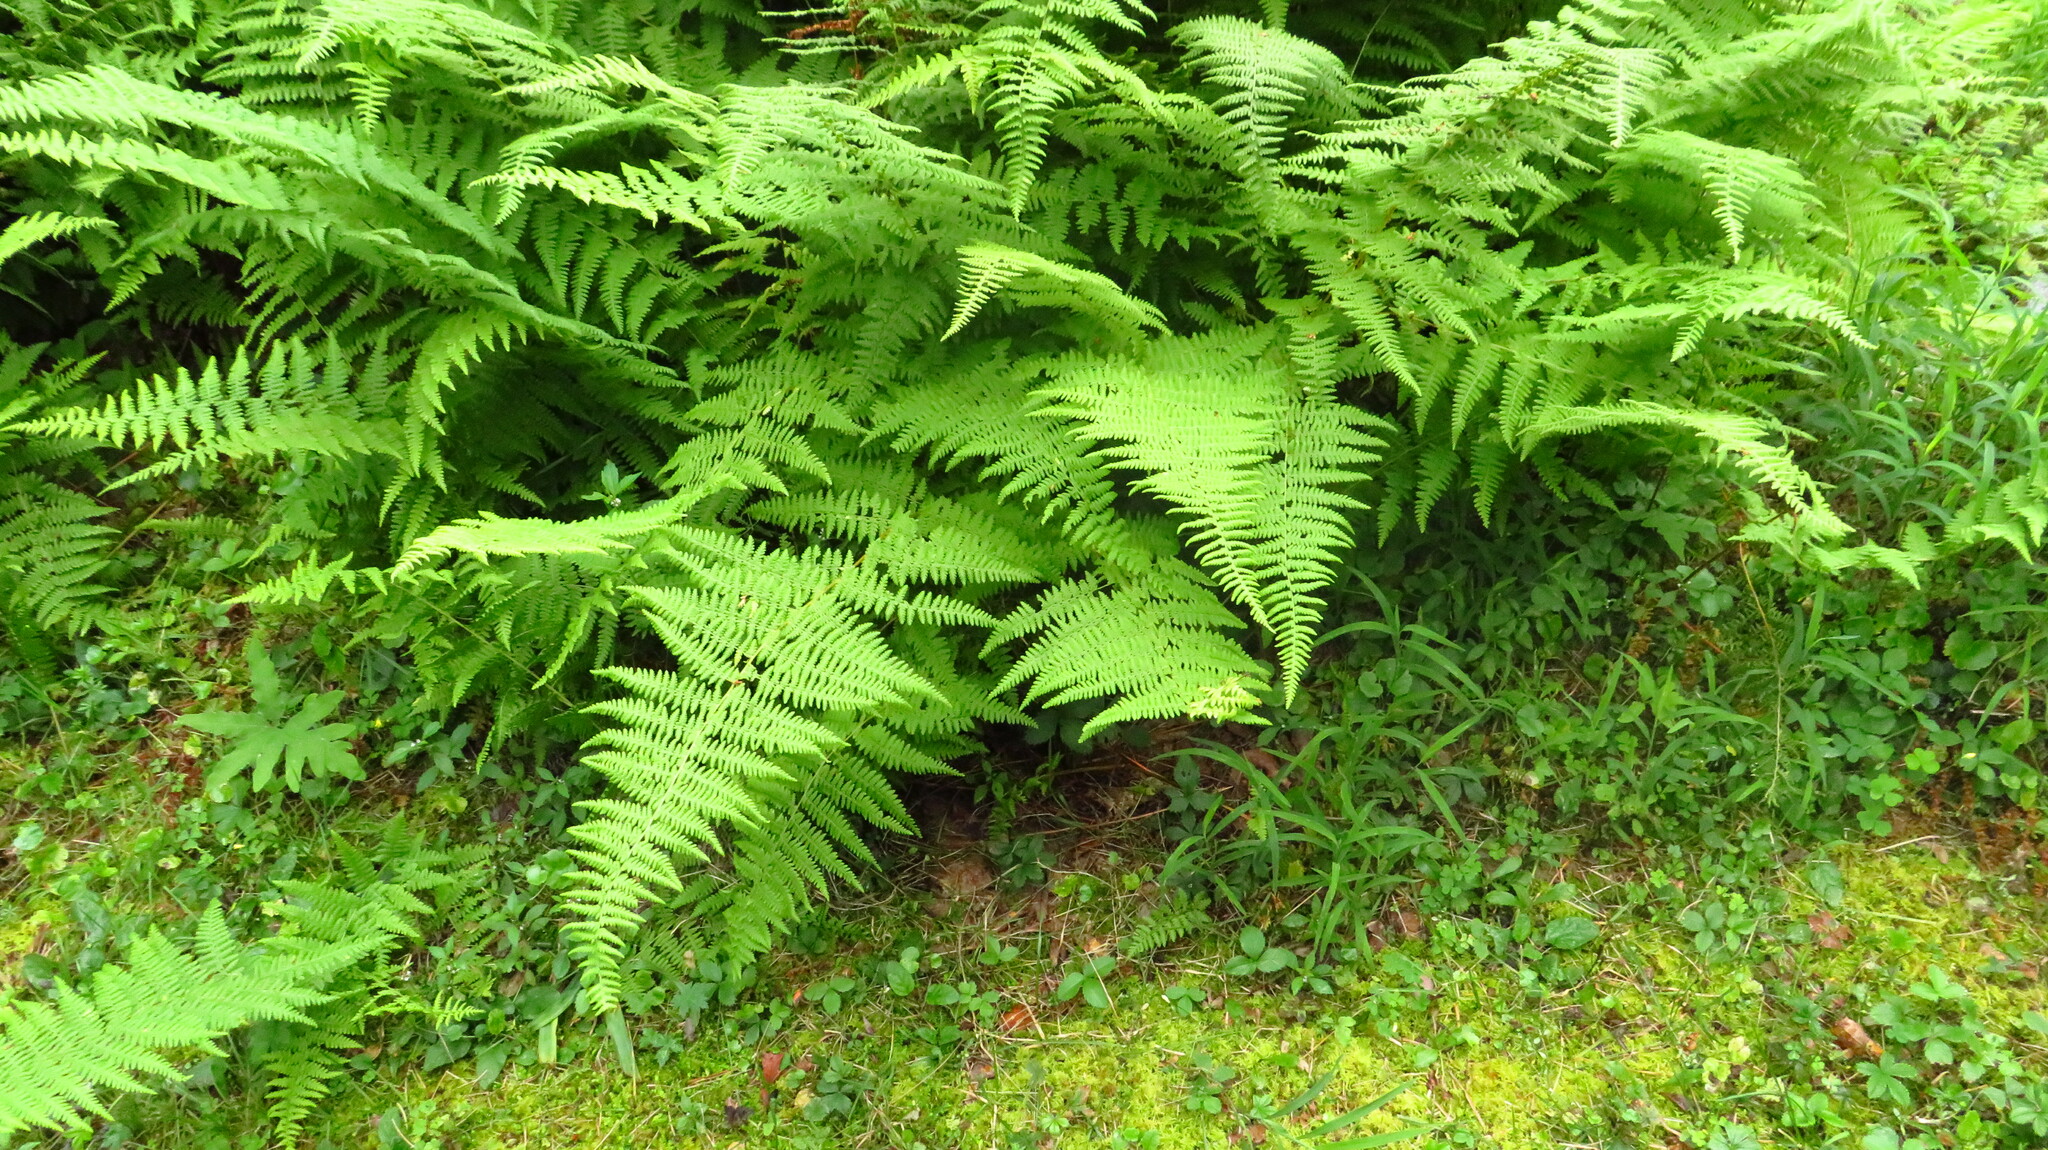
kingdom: Plantae
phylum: Tracheophyta
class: Polypodiopsida
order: Polypodiales
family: Dennstaedtiaceae
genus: Sitobolium
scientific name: Sitobolium punctilobum
